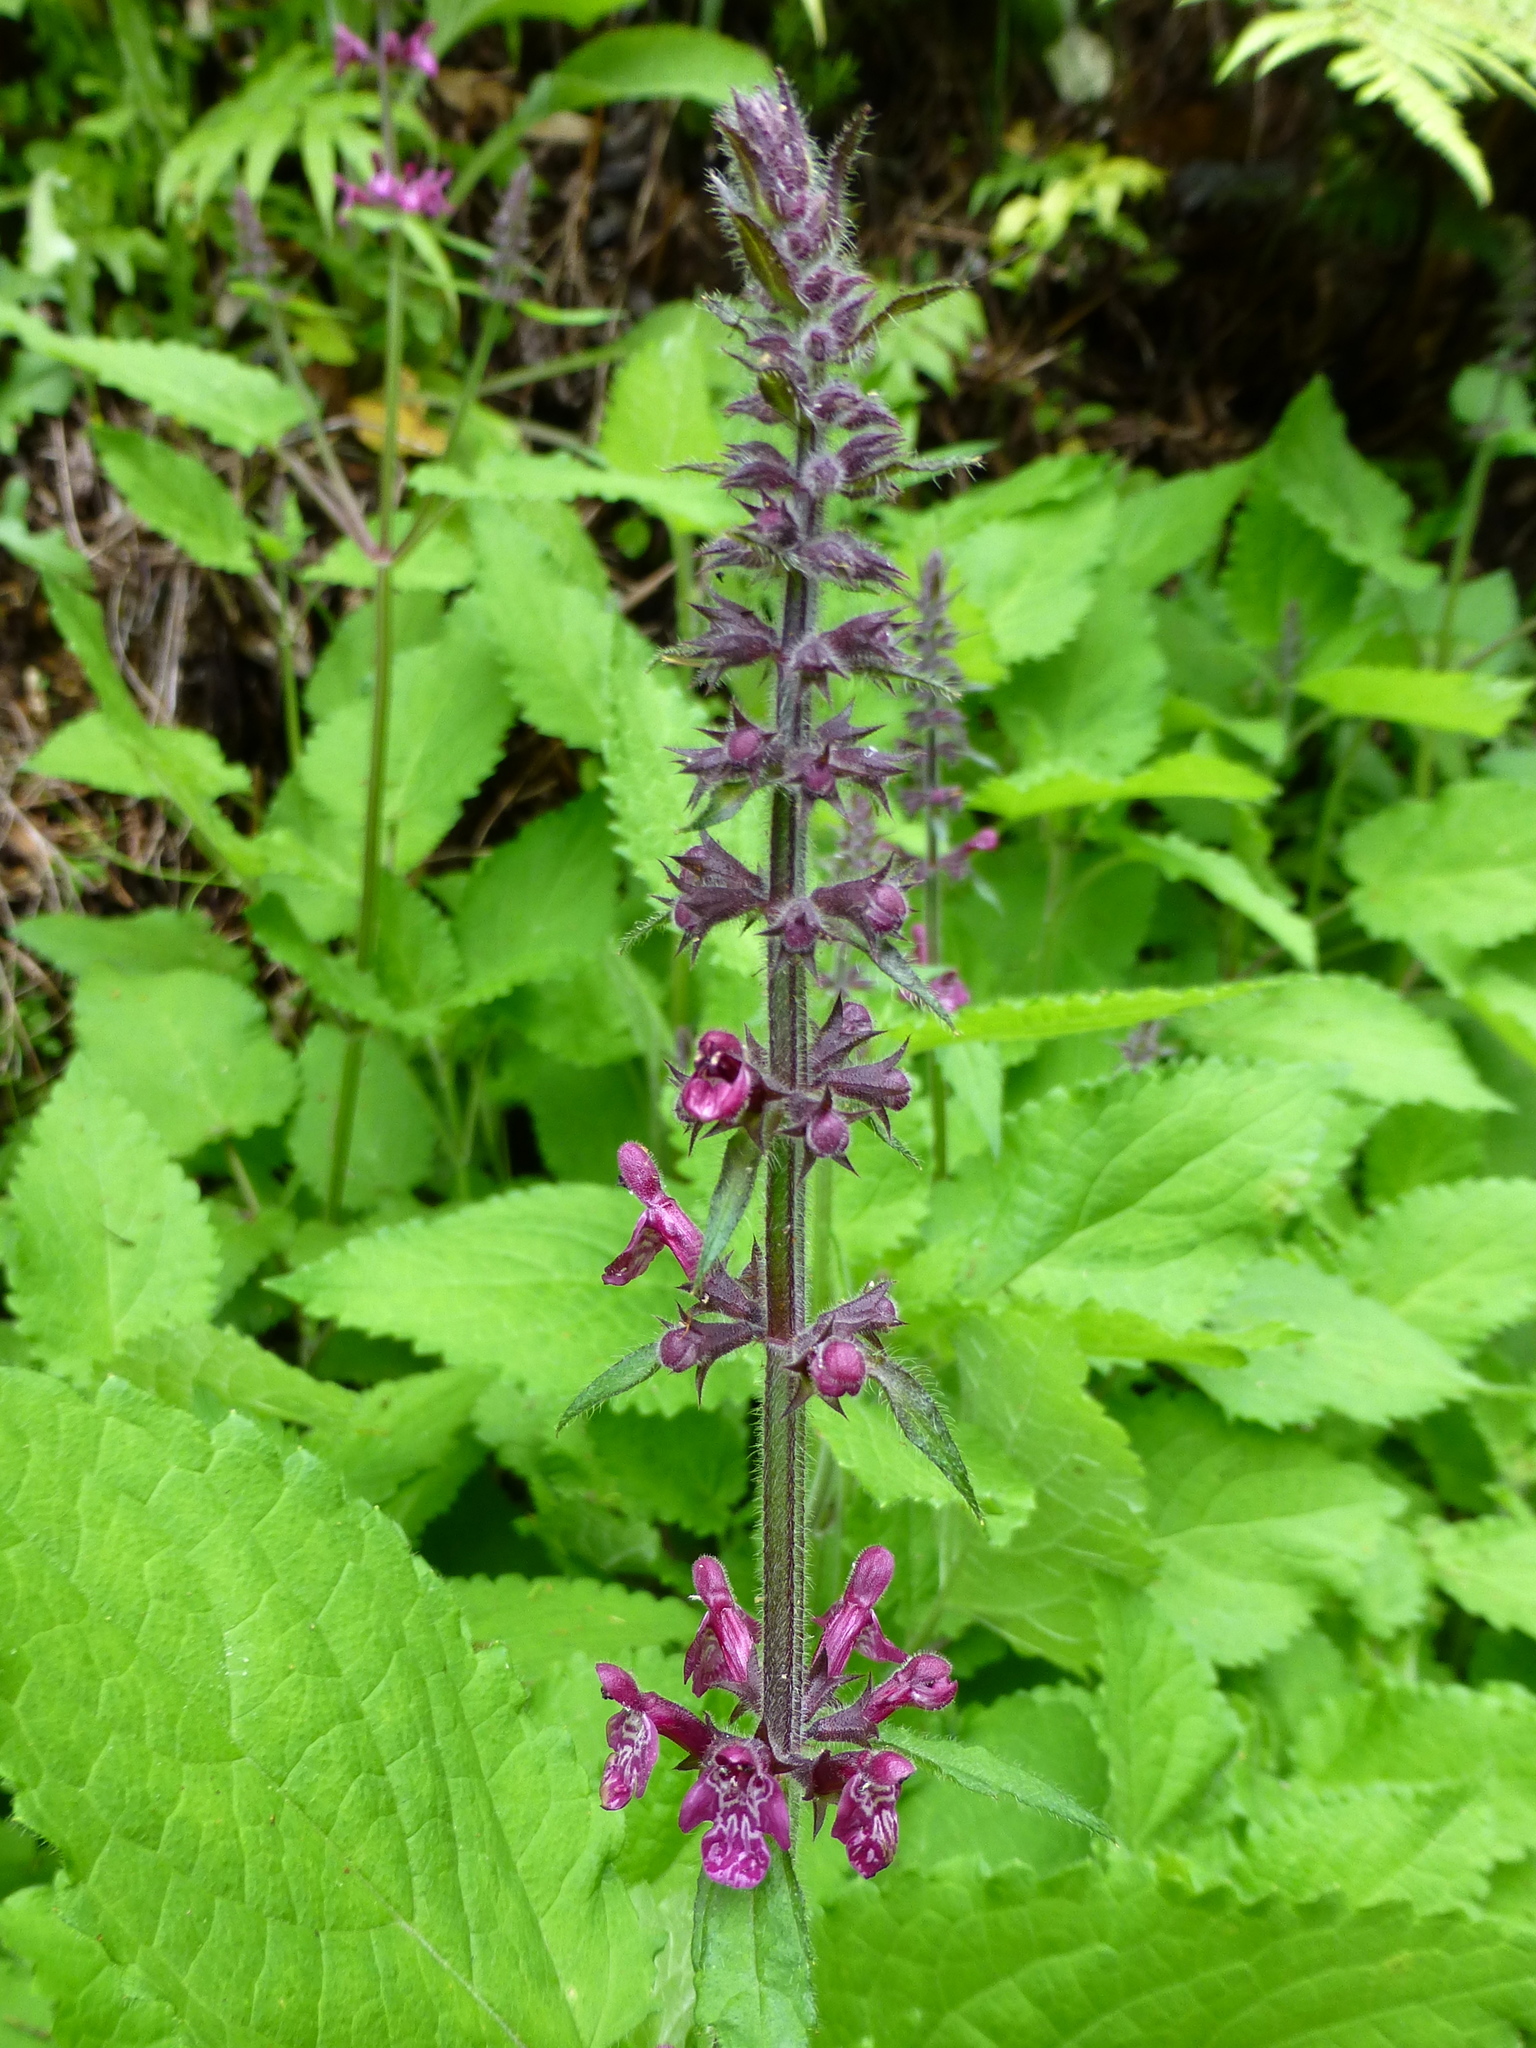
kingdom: Plantae
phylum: Tracheophyta
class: Magnoliopsida
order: Lamiales
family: Lamiaceae
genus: Stachys
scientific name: Stachys sylvatica
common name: Hedge woundwort
